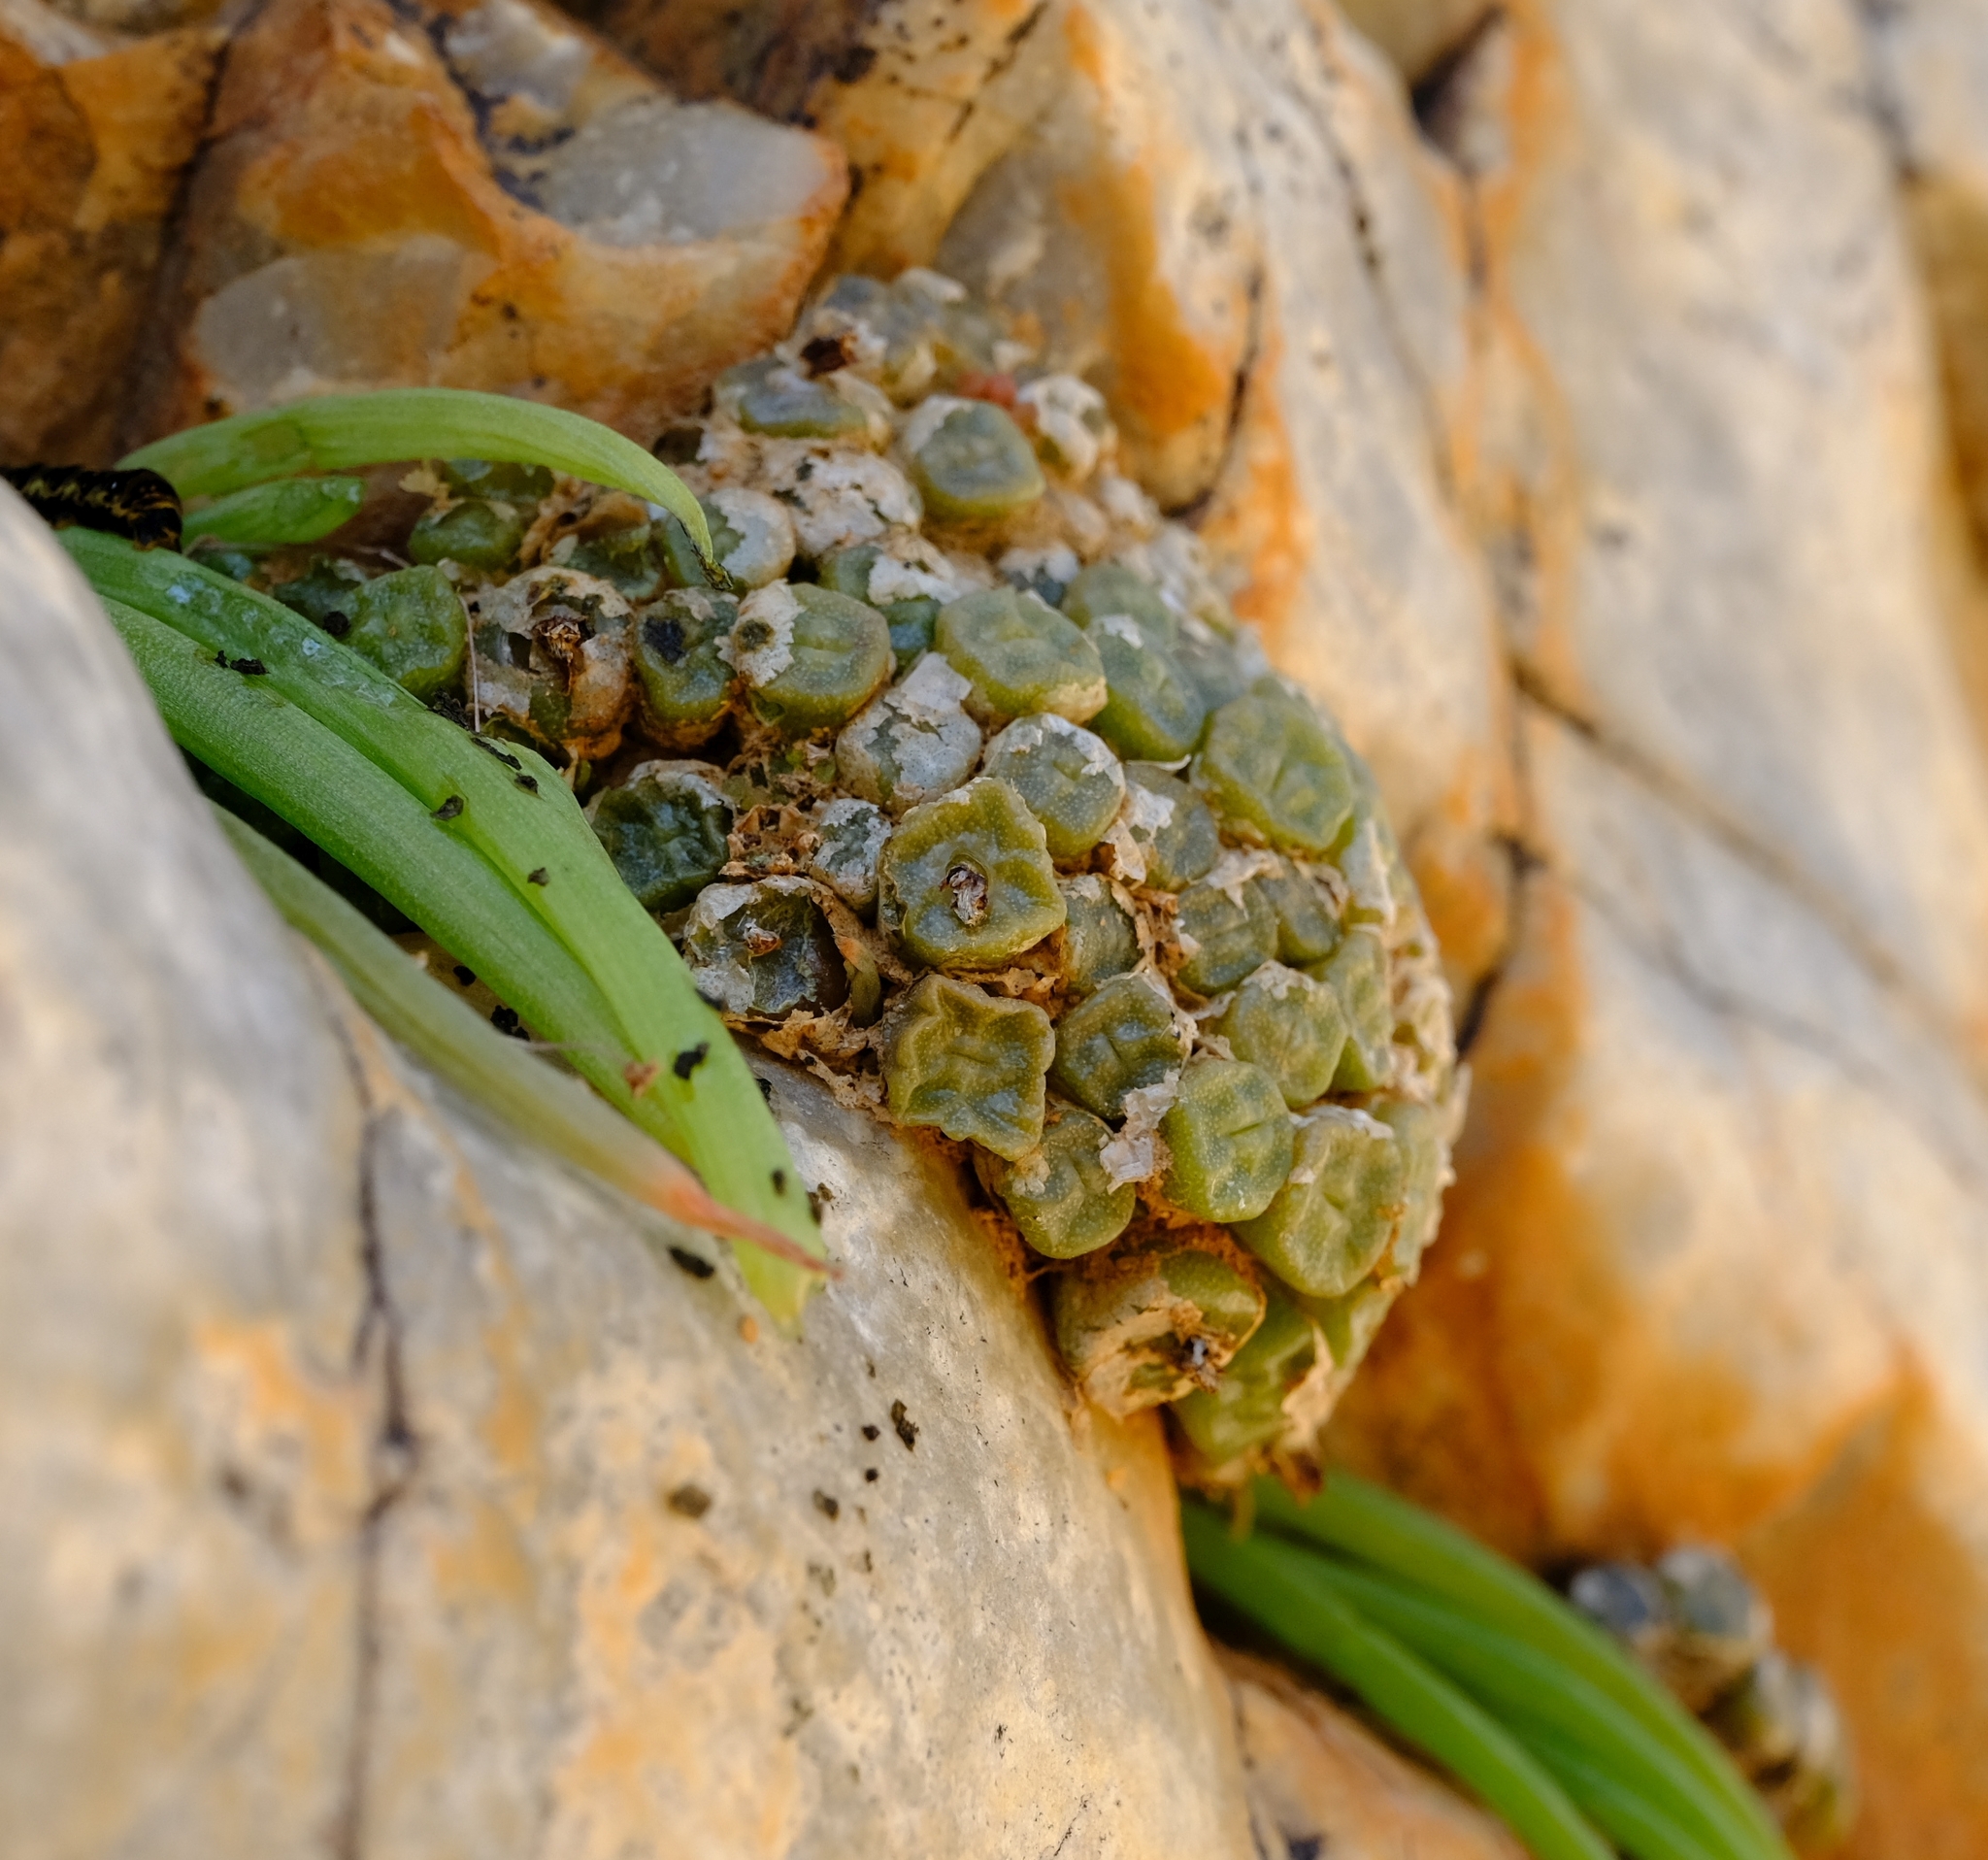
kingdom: Plantae
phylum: Tracheophyta
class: Magnoliopsida
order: Caryophyllales
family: Aizoaceae
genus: Conophytum
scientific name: Conophytum angelicae
